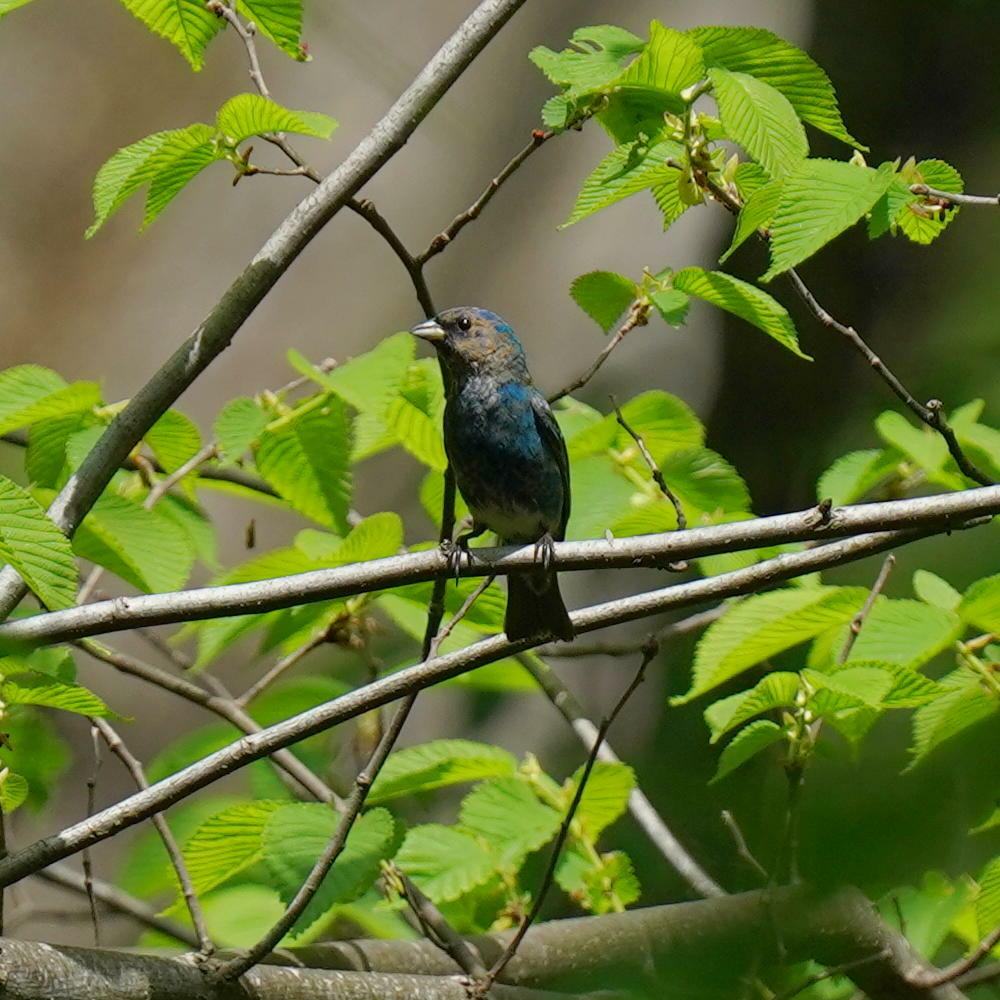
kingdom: Animalia
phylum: Chordata
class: Aves
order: Passeriformes
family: Cardinalidae
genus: Passerina
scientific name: Passerina cyanea
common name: Indigo bunting
